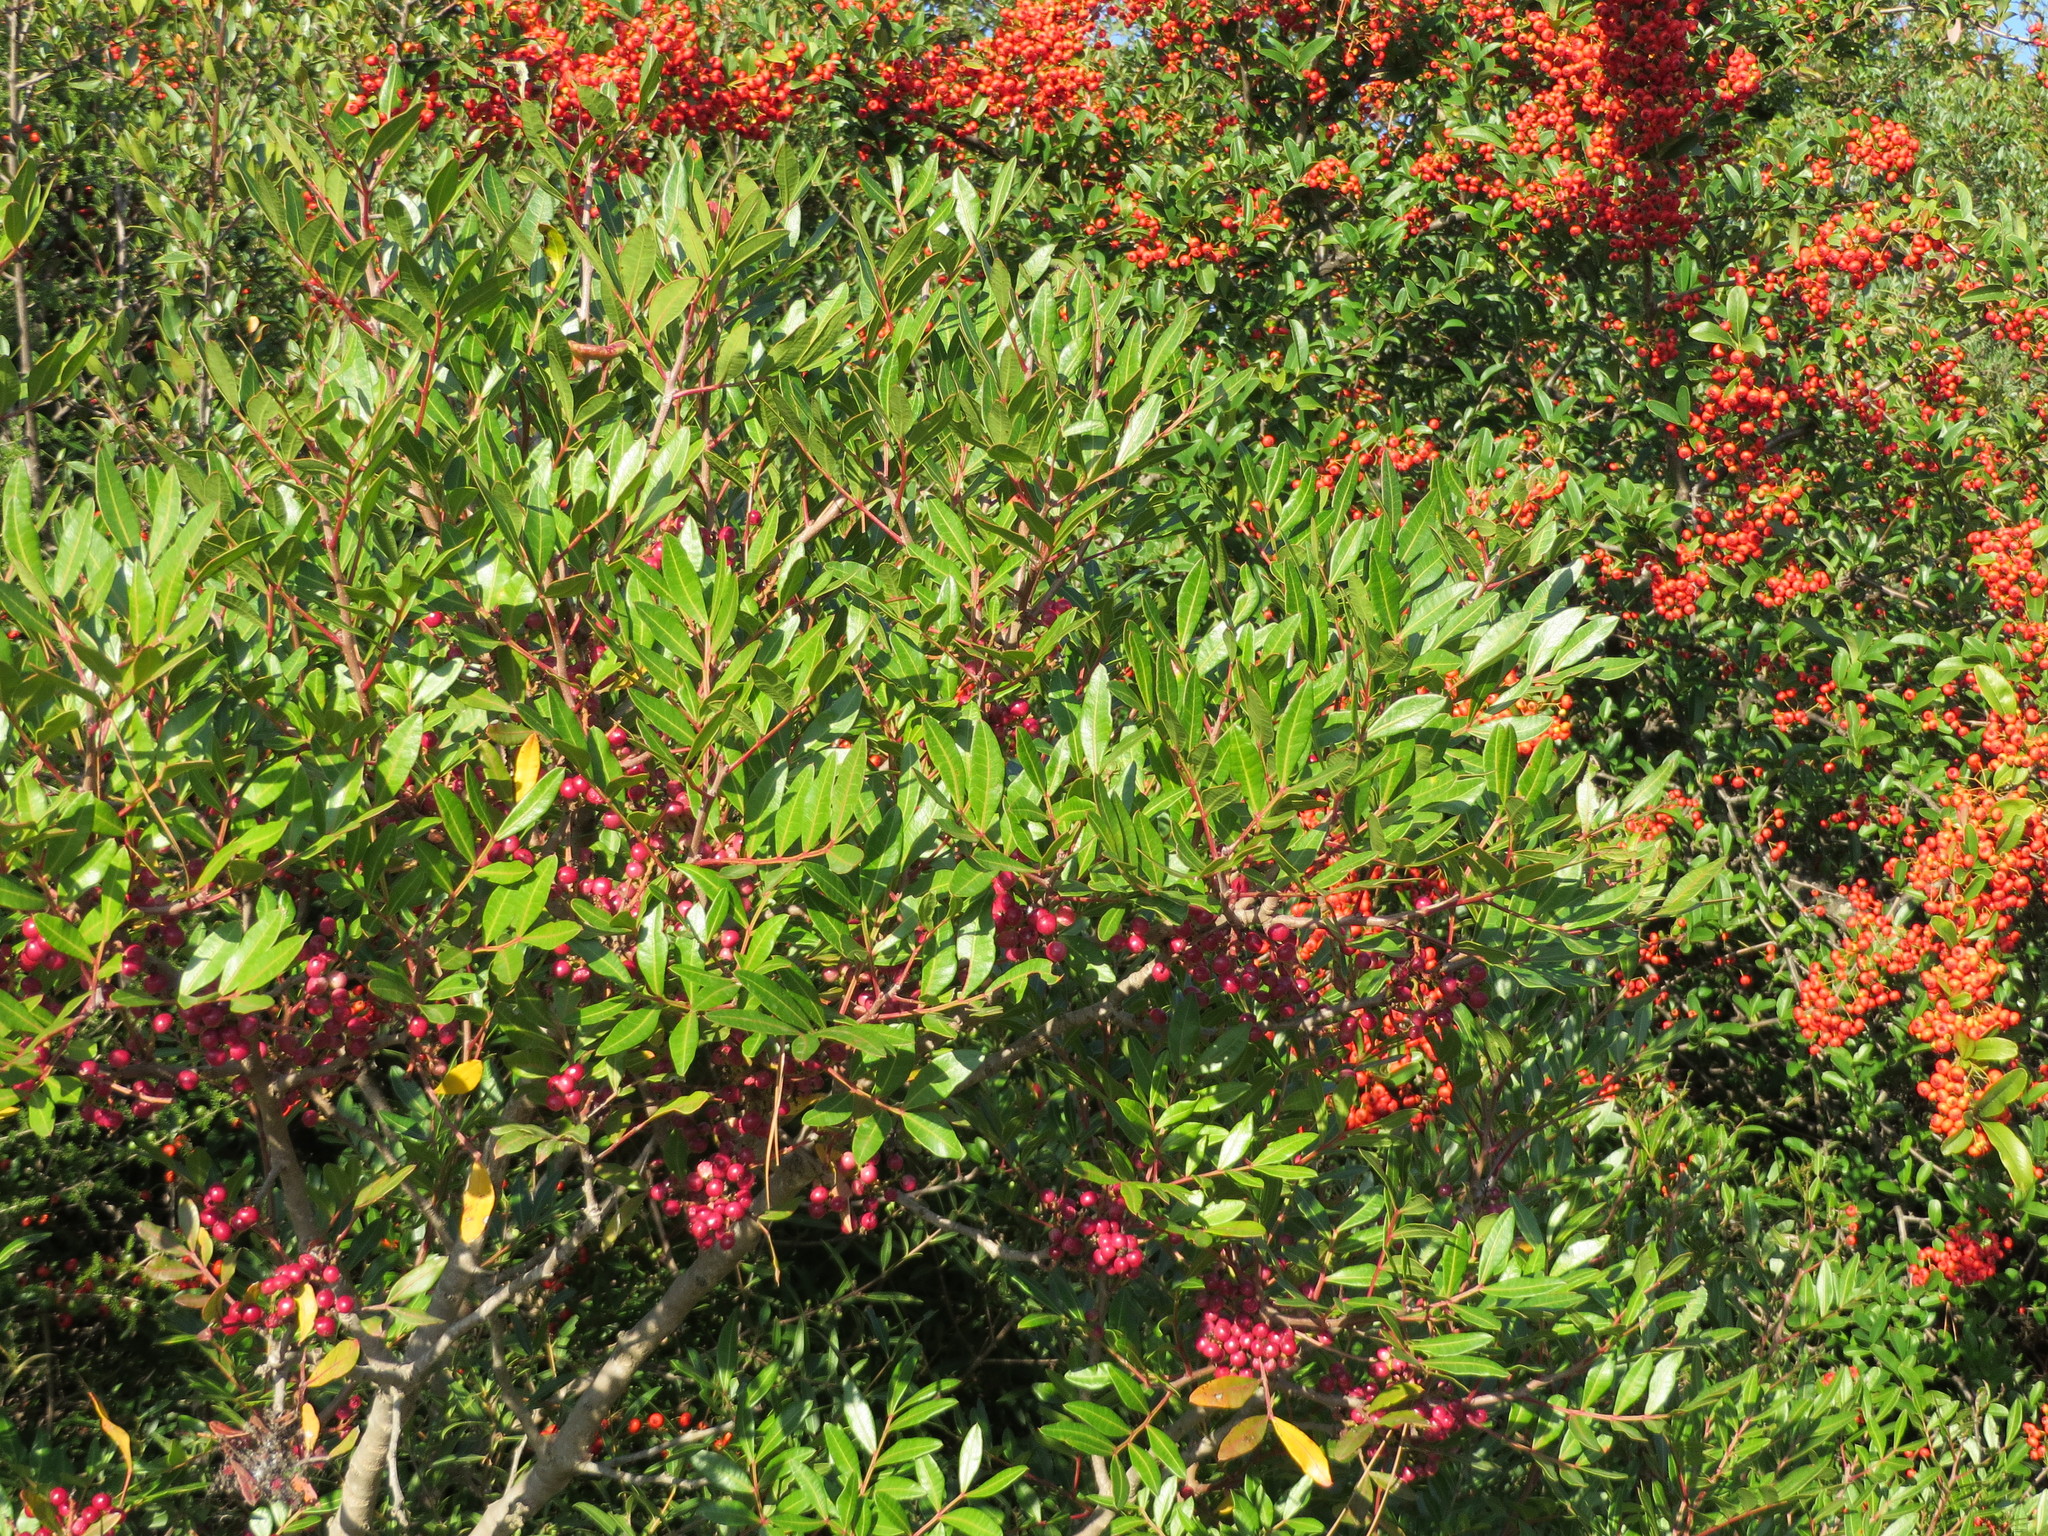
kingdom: Plantae
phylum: Tracheophyta
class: Magnoliopsida
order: Sapindales
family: Anacardiaceae
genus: Pistacia
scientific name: Pistacia lentiscus
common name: Lentisk
